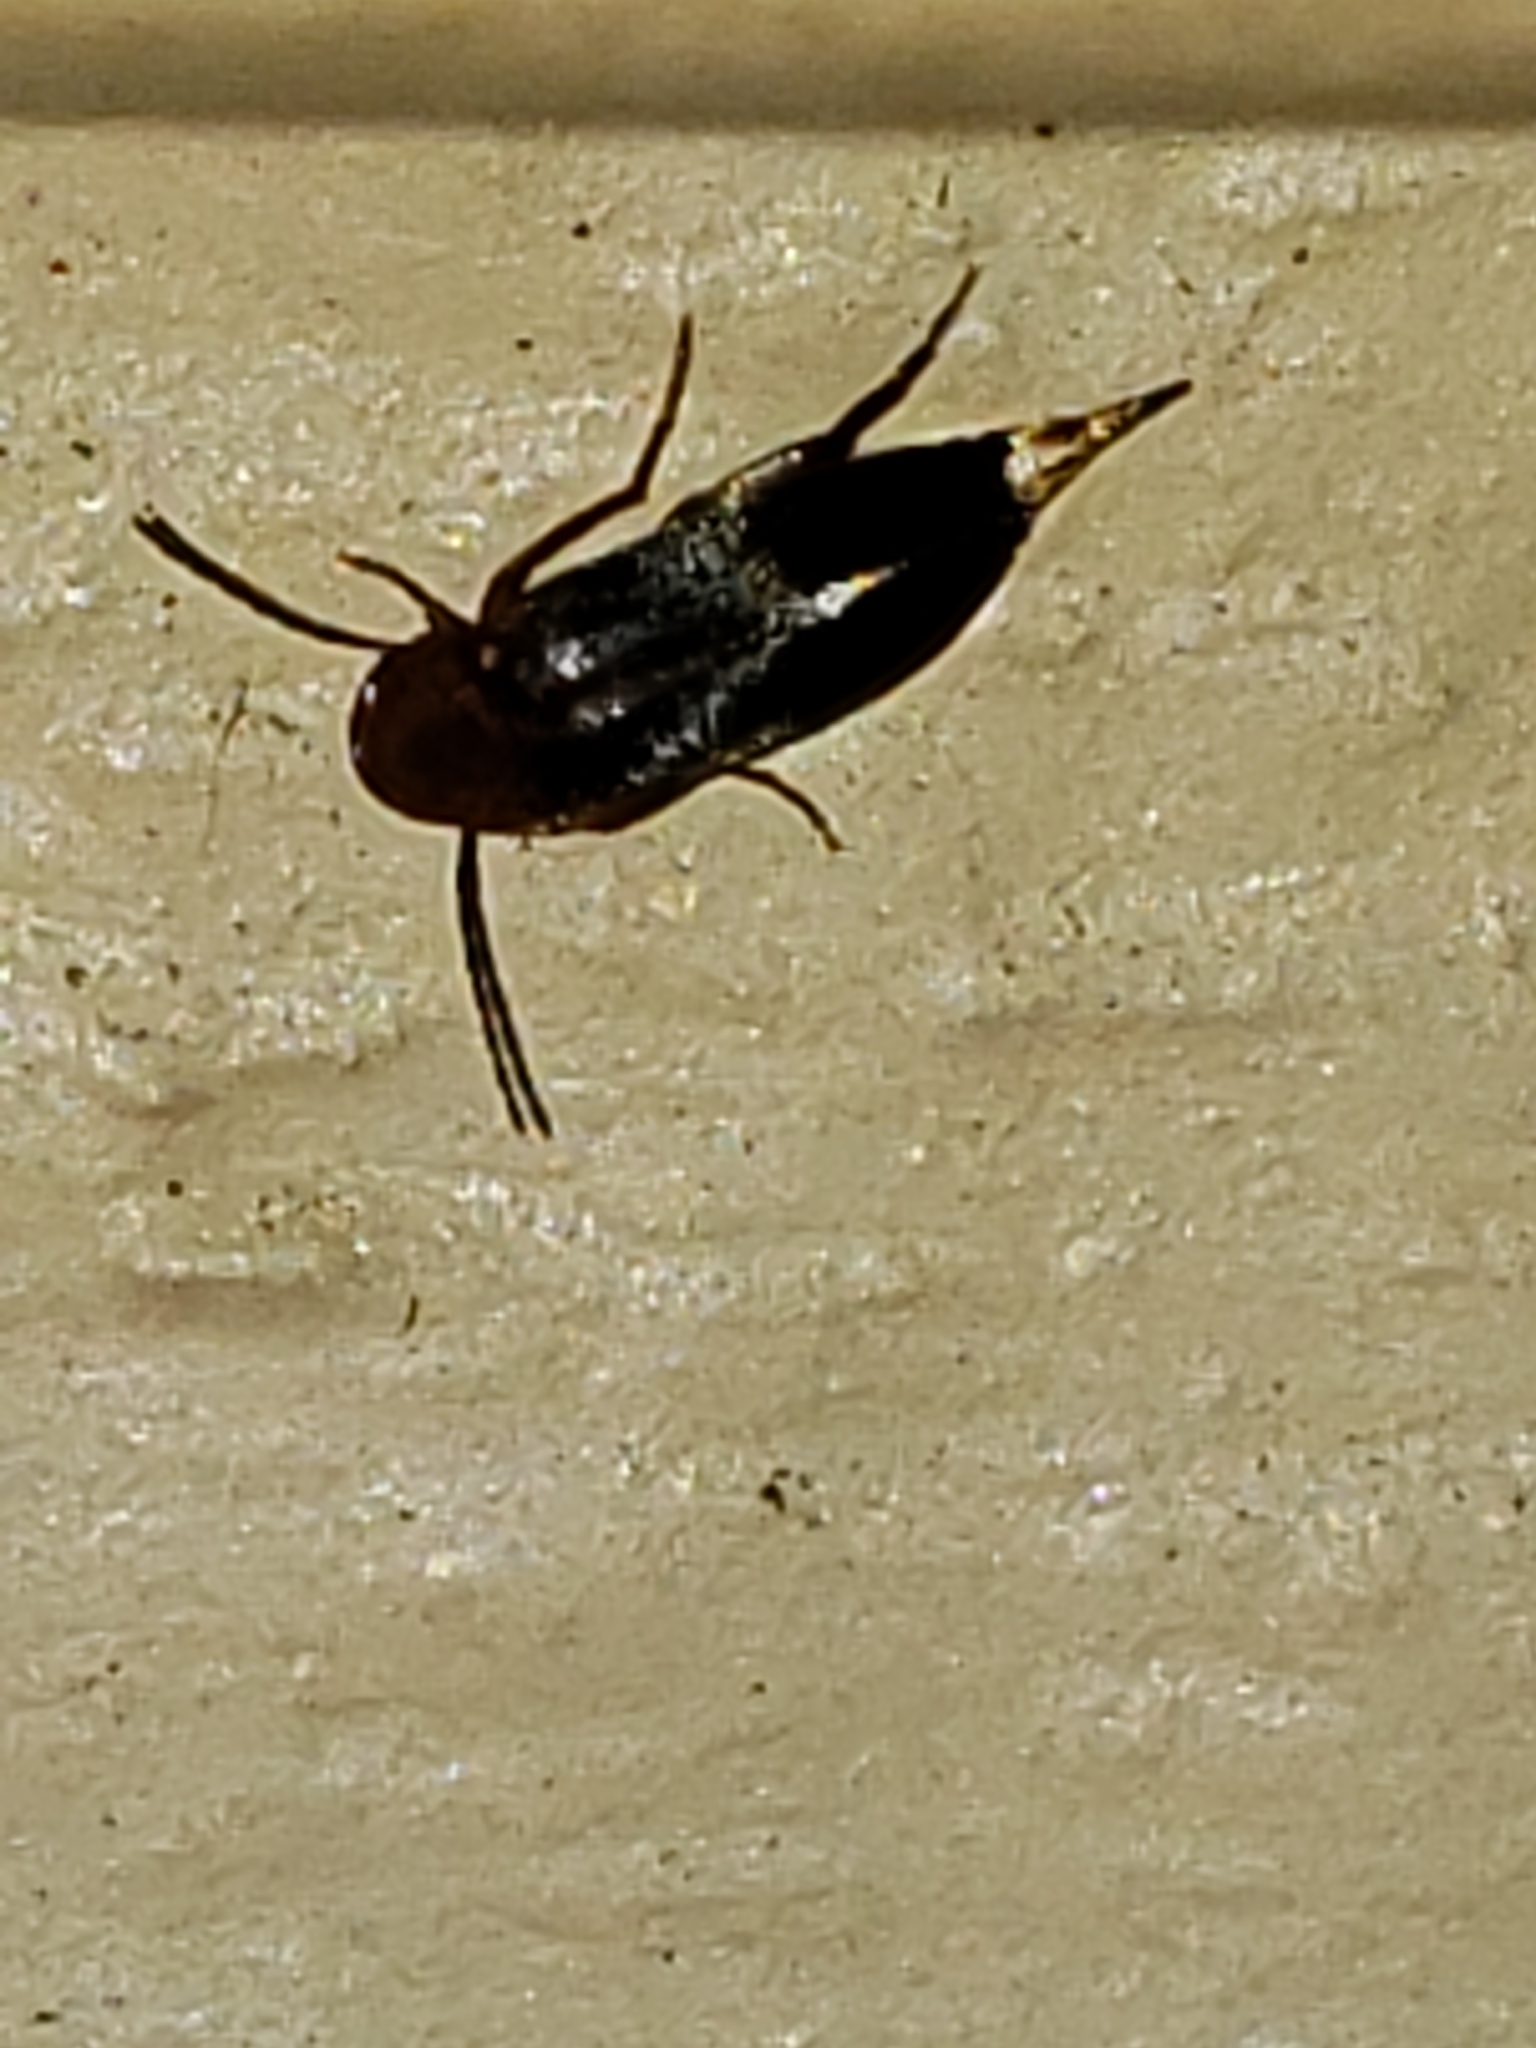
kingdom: Animalia
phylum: Arthropoda
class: Insecta
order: Coleoptera
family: Mordellidae
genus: Mordellistena
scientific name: Mordellistena vera
